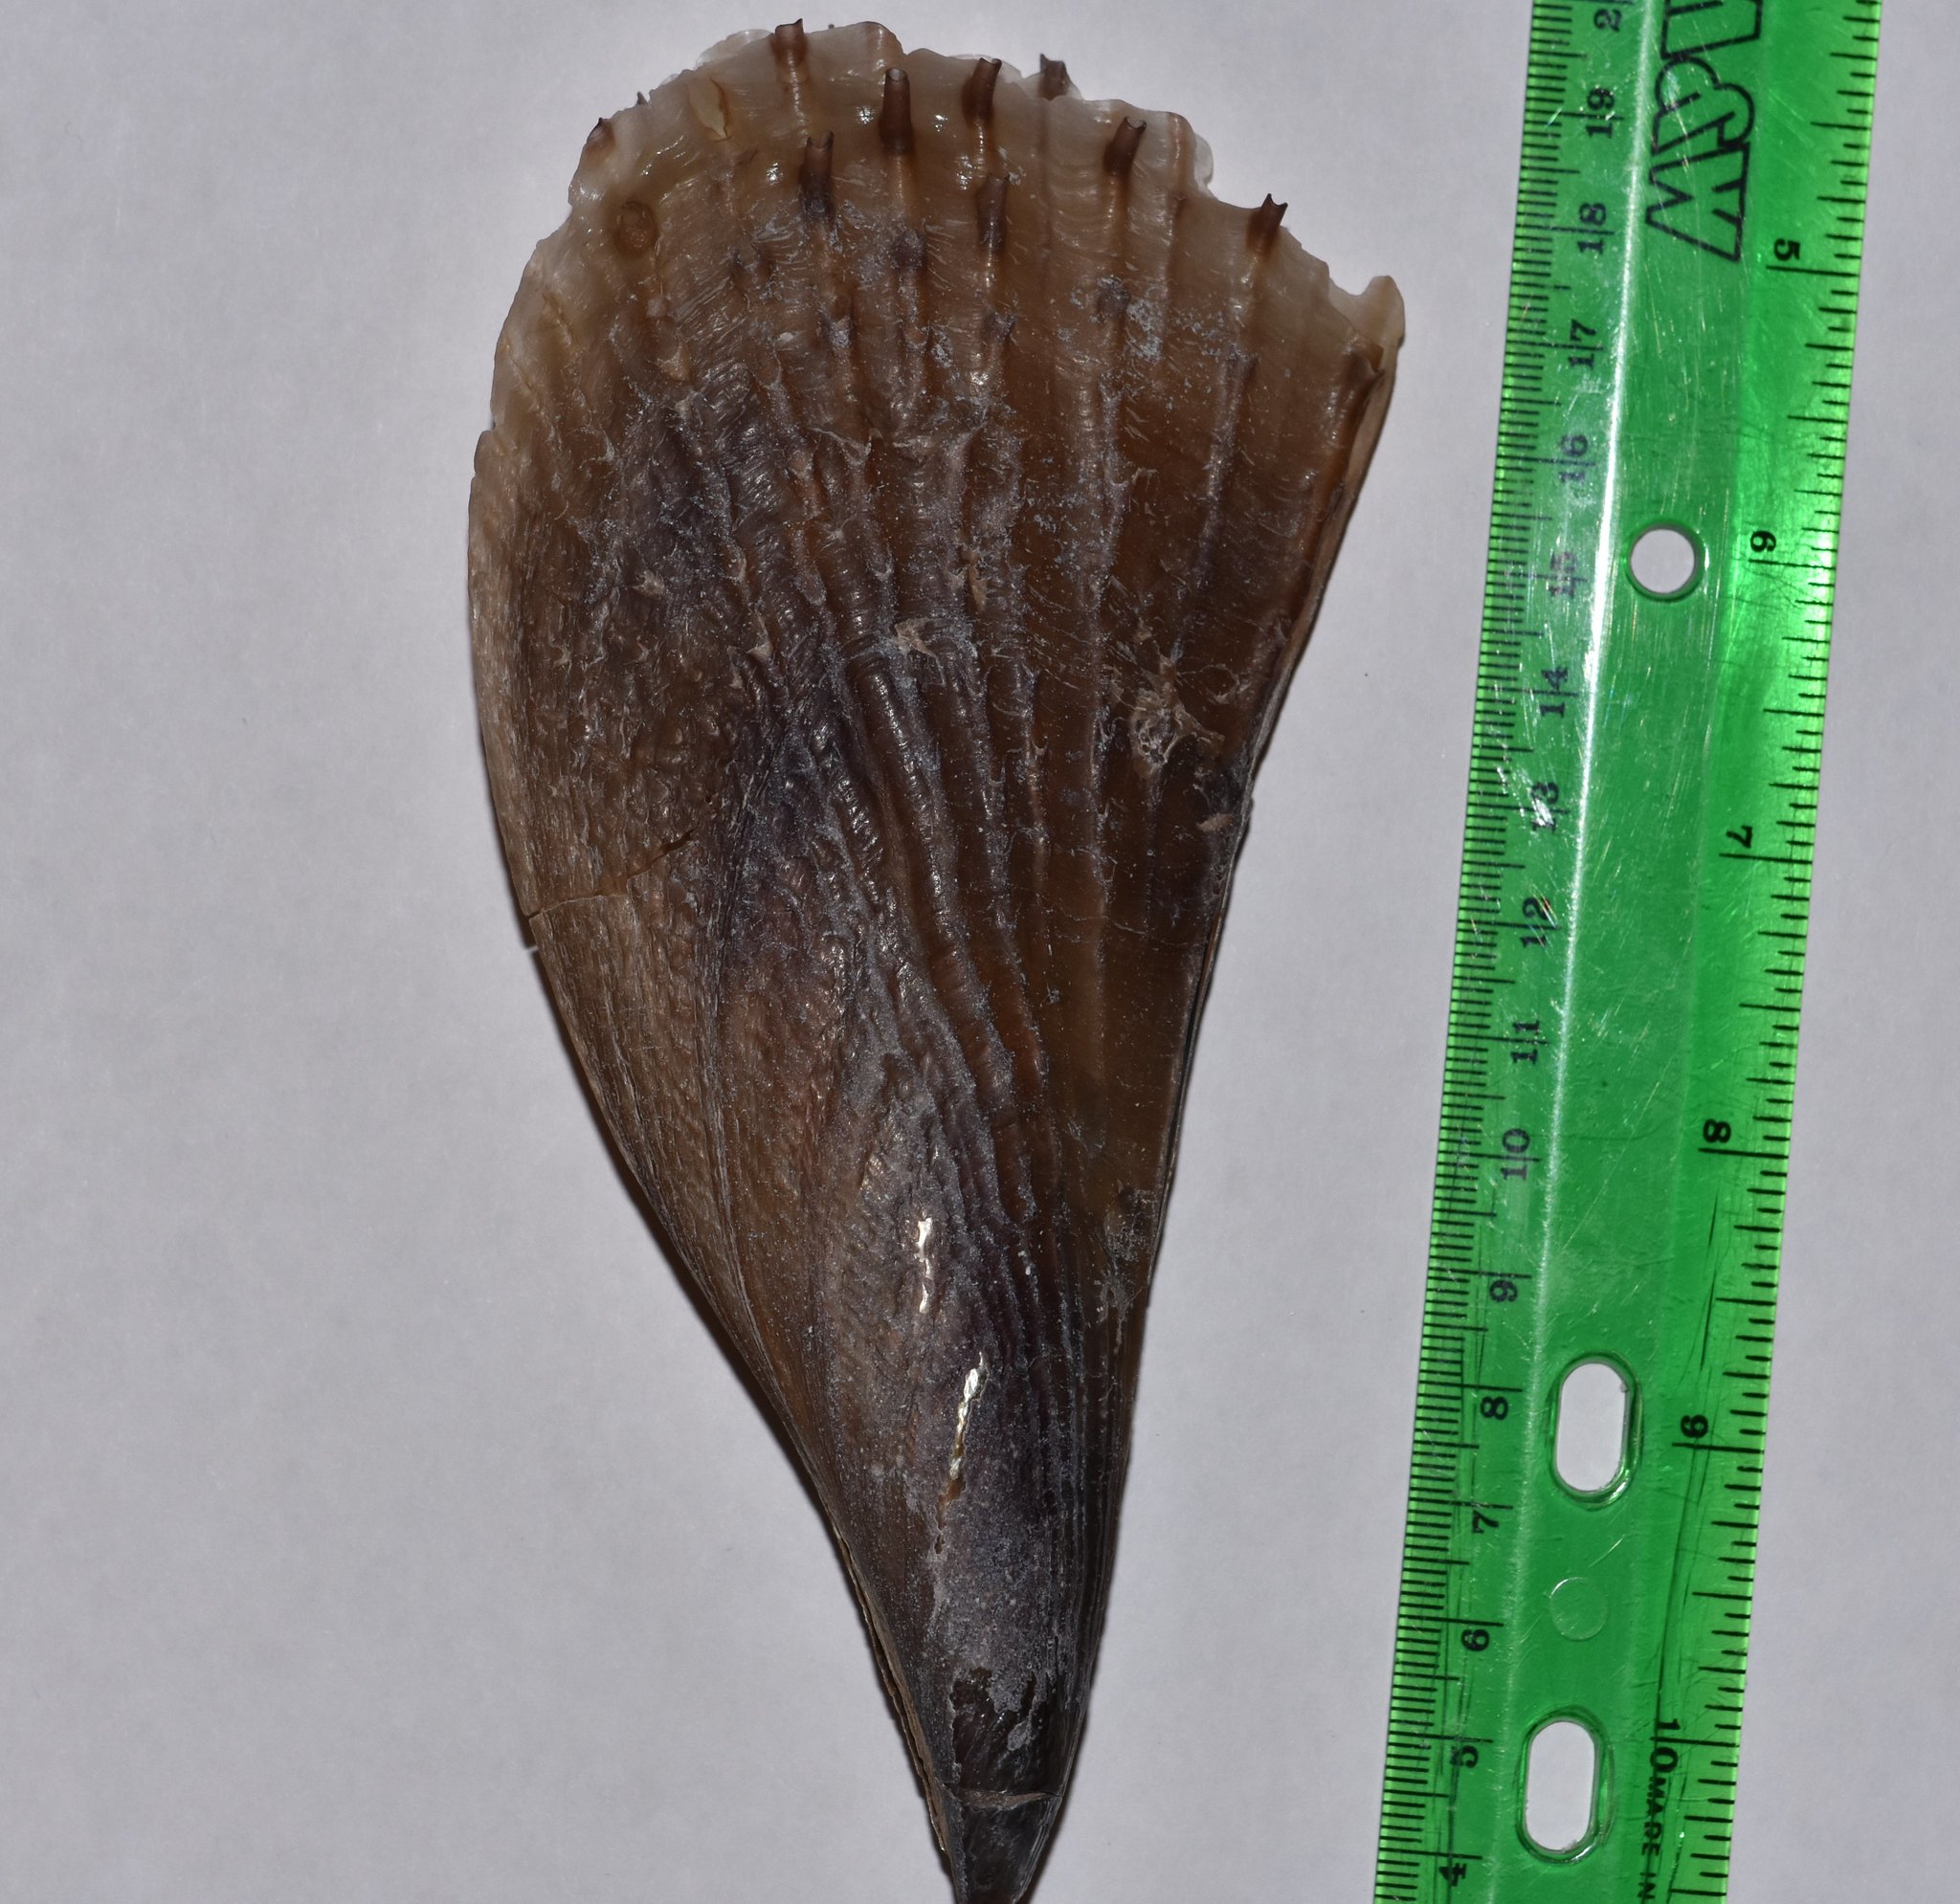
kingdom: Animalia
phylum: Mollusca
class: Bivalvia
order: Ostreida
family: Pinnidae
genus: Atrina
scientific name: Atrina rigida
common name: Stiff penshell
